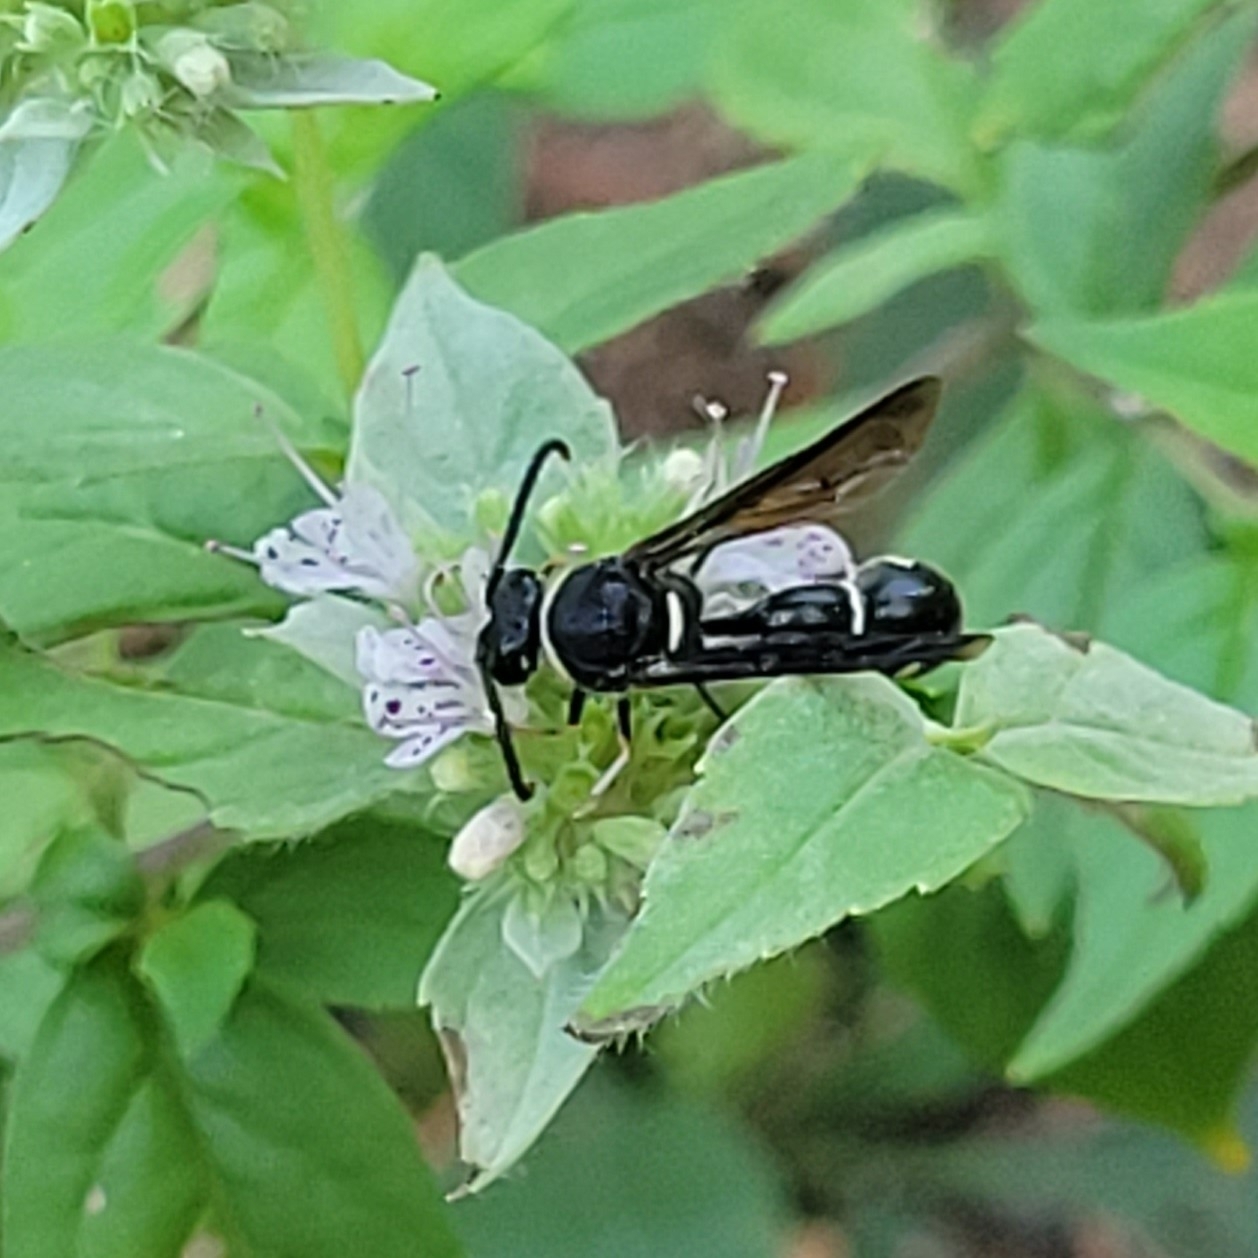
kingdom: Animalia
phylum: Arthropoda
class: Insecta
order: Hymenoptera
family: Vespidae
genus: Eumenes
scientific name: Eumenes fraternus
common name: Fraternal potter wasp
